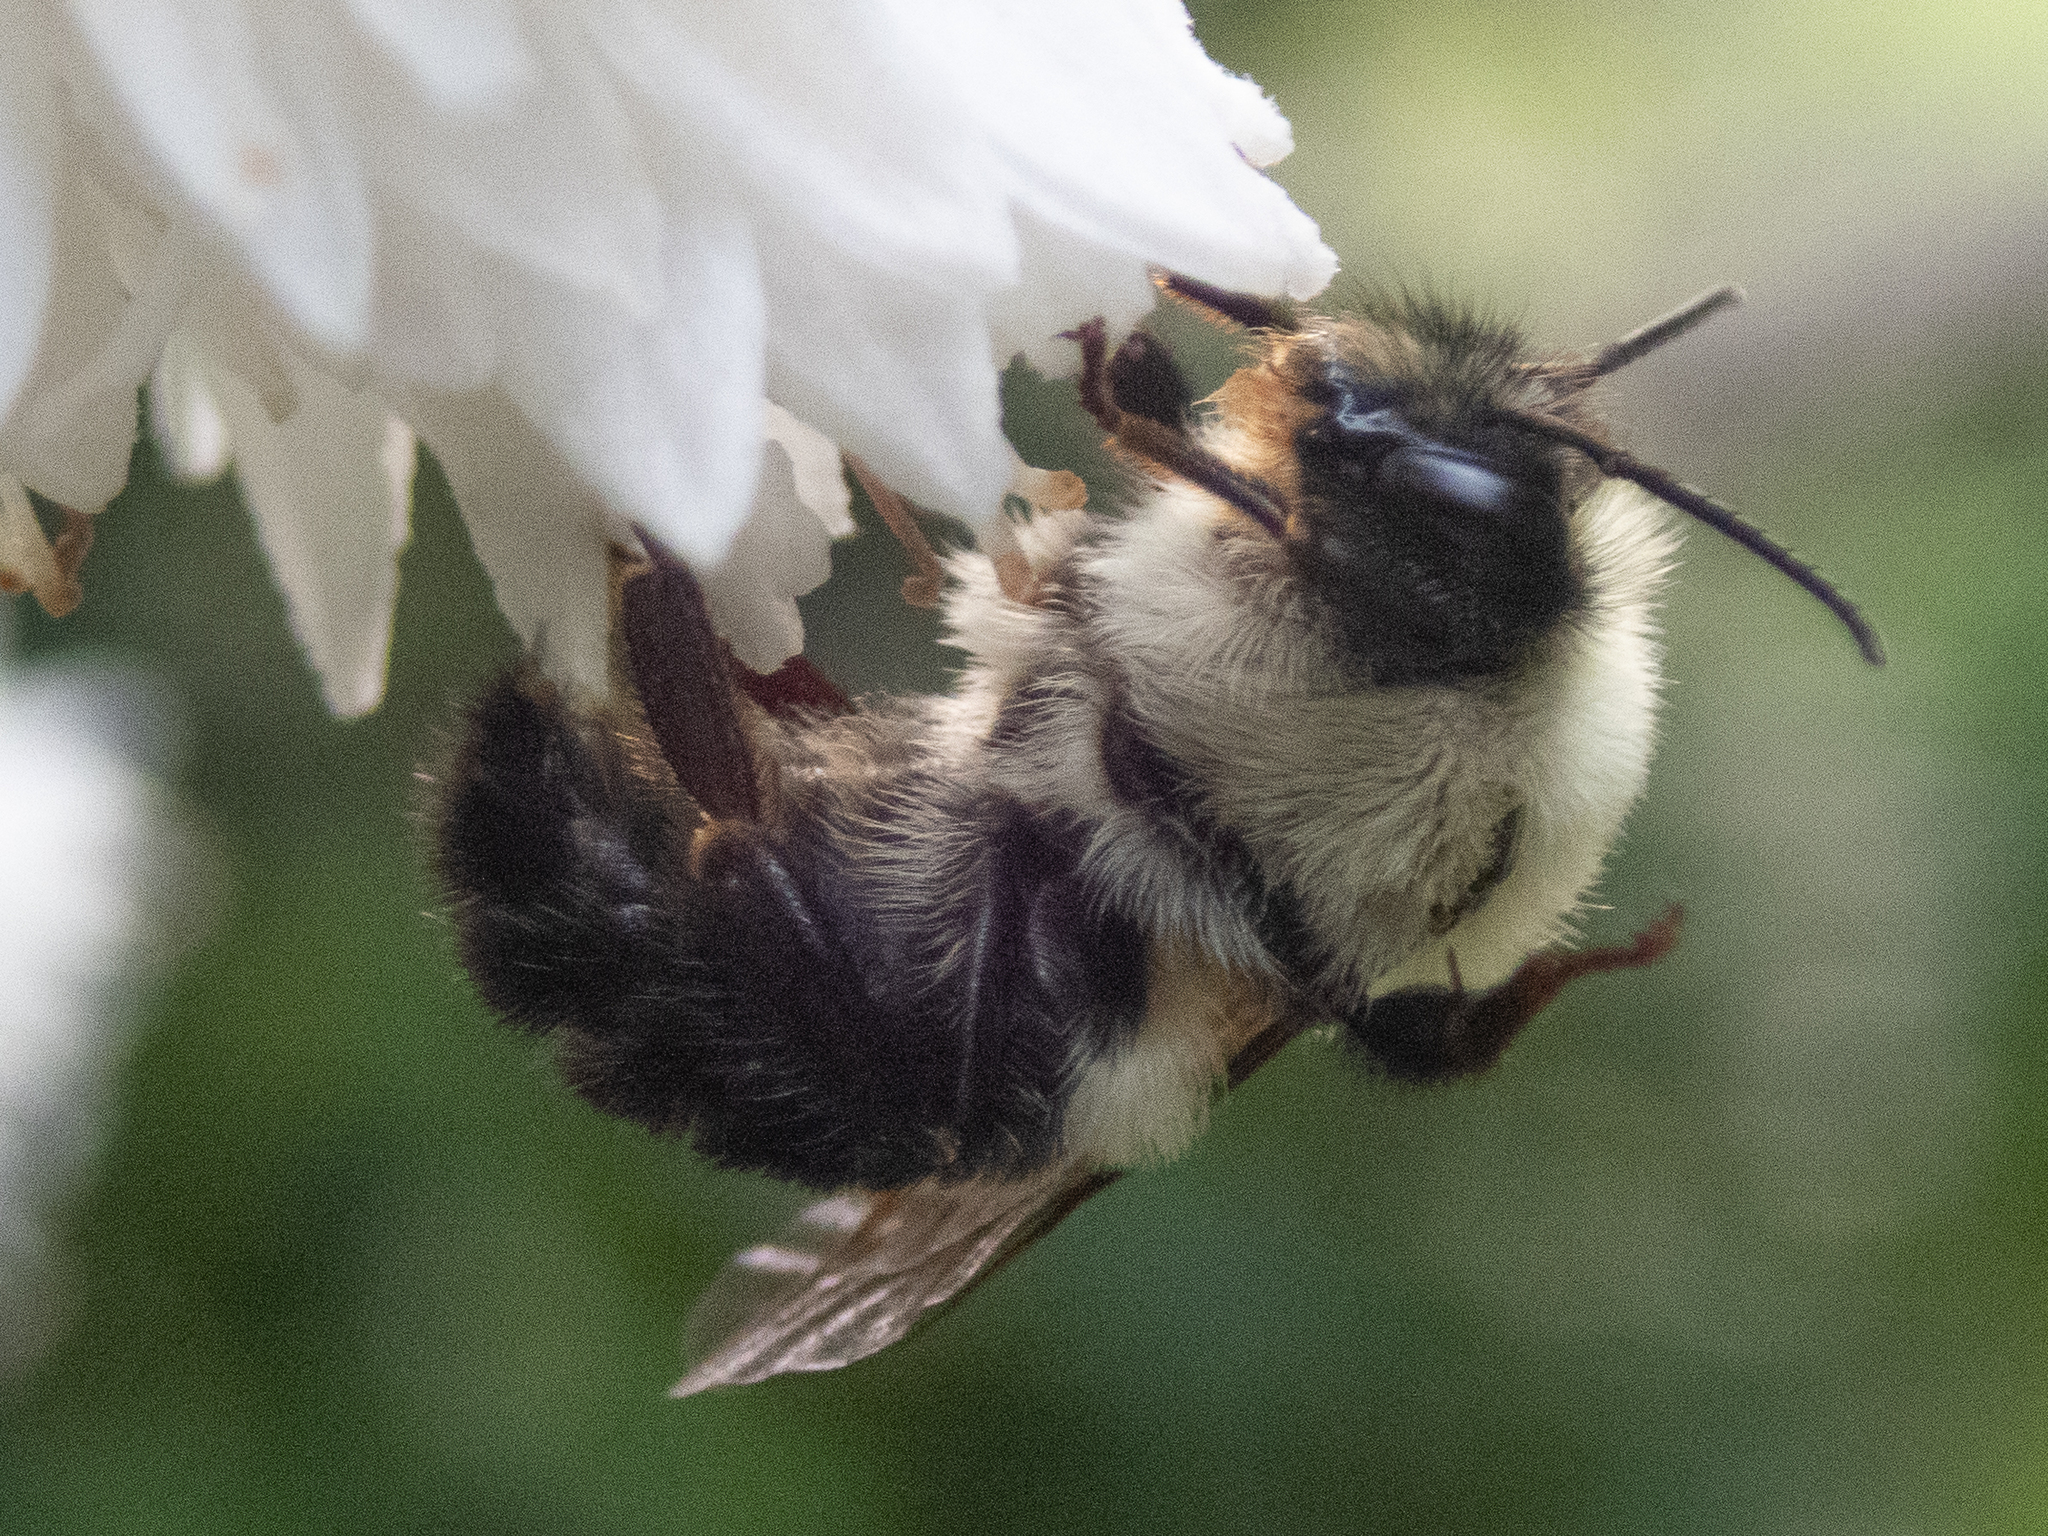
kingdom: Animalia
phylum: Arthropoda
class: Insecta
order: Hymenoptera
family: Apidae
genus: Bombus
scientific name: Bombus bimaculatus
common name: Two-spotted bumble bee
